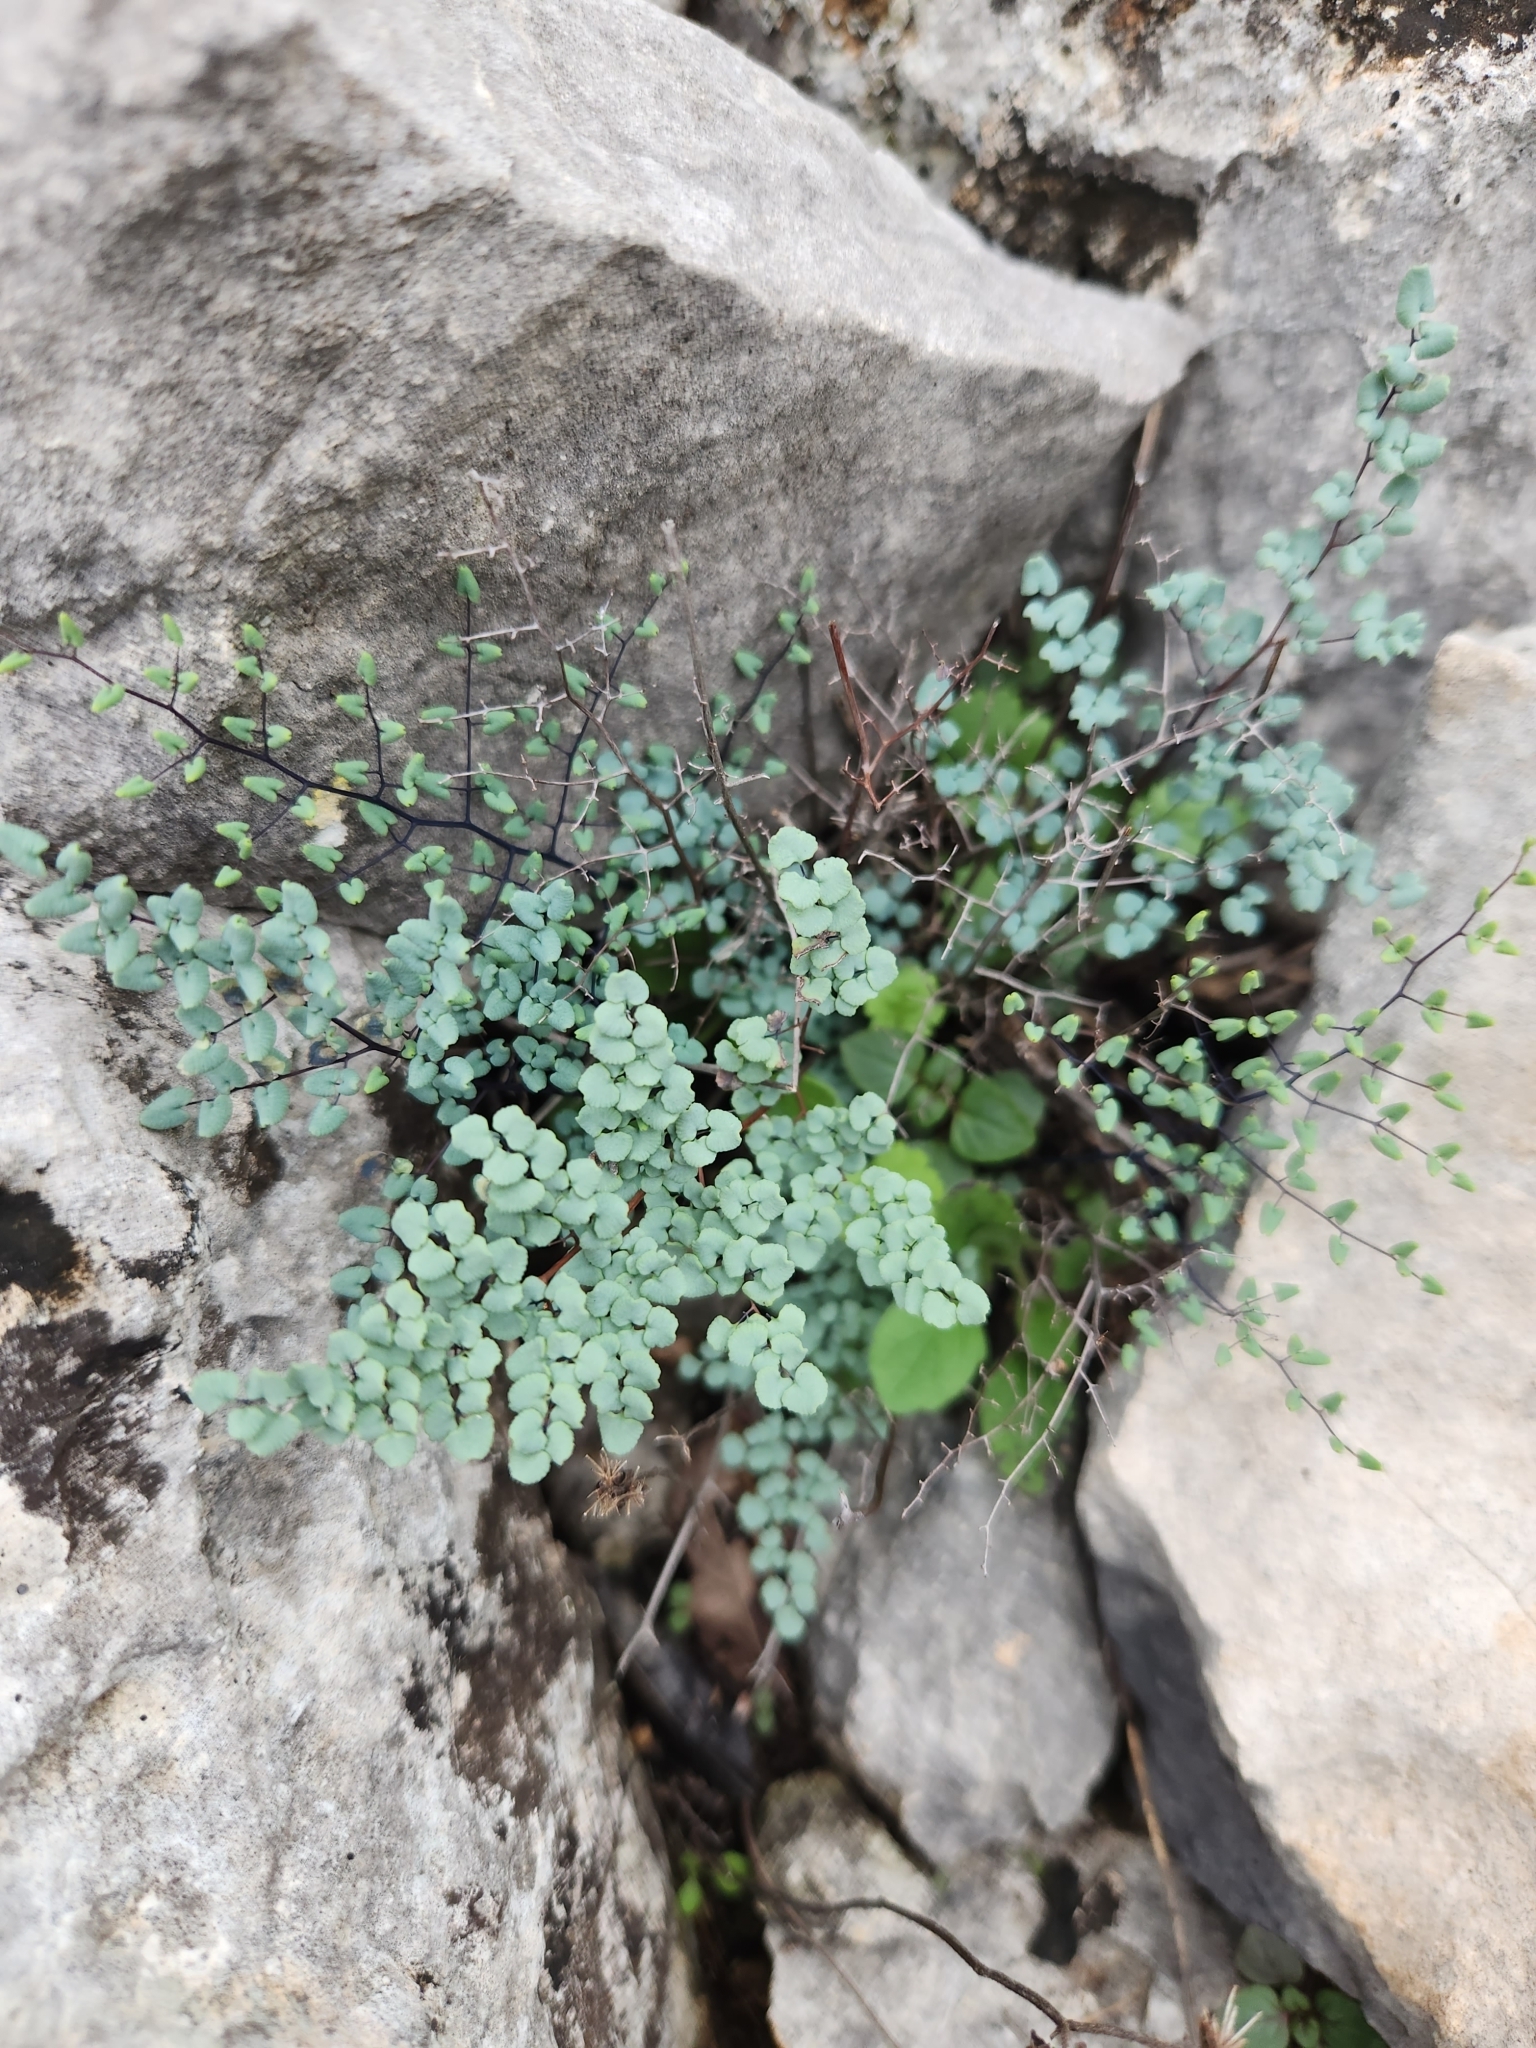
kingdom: Plantae
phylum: Tracheophyta
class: Polypodiopsida
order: Polypodiales
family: Pteridaceae
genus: Argyrochosma
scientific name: Argyrochosma microphylla
